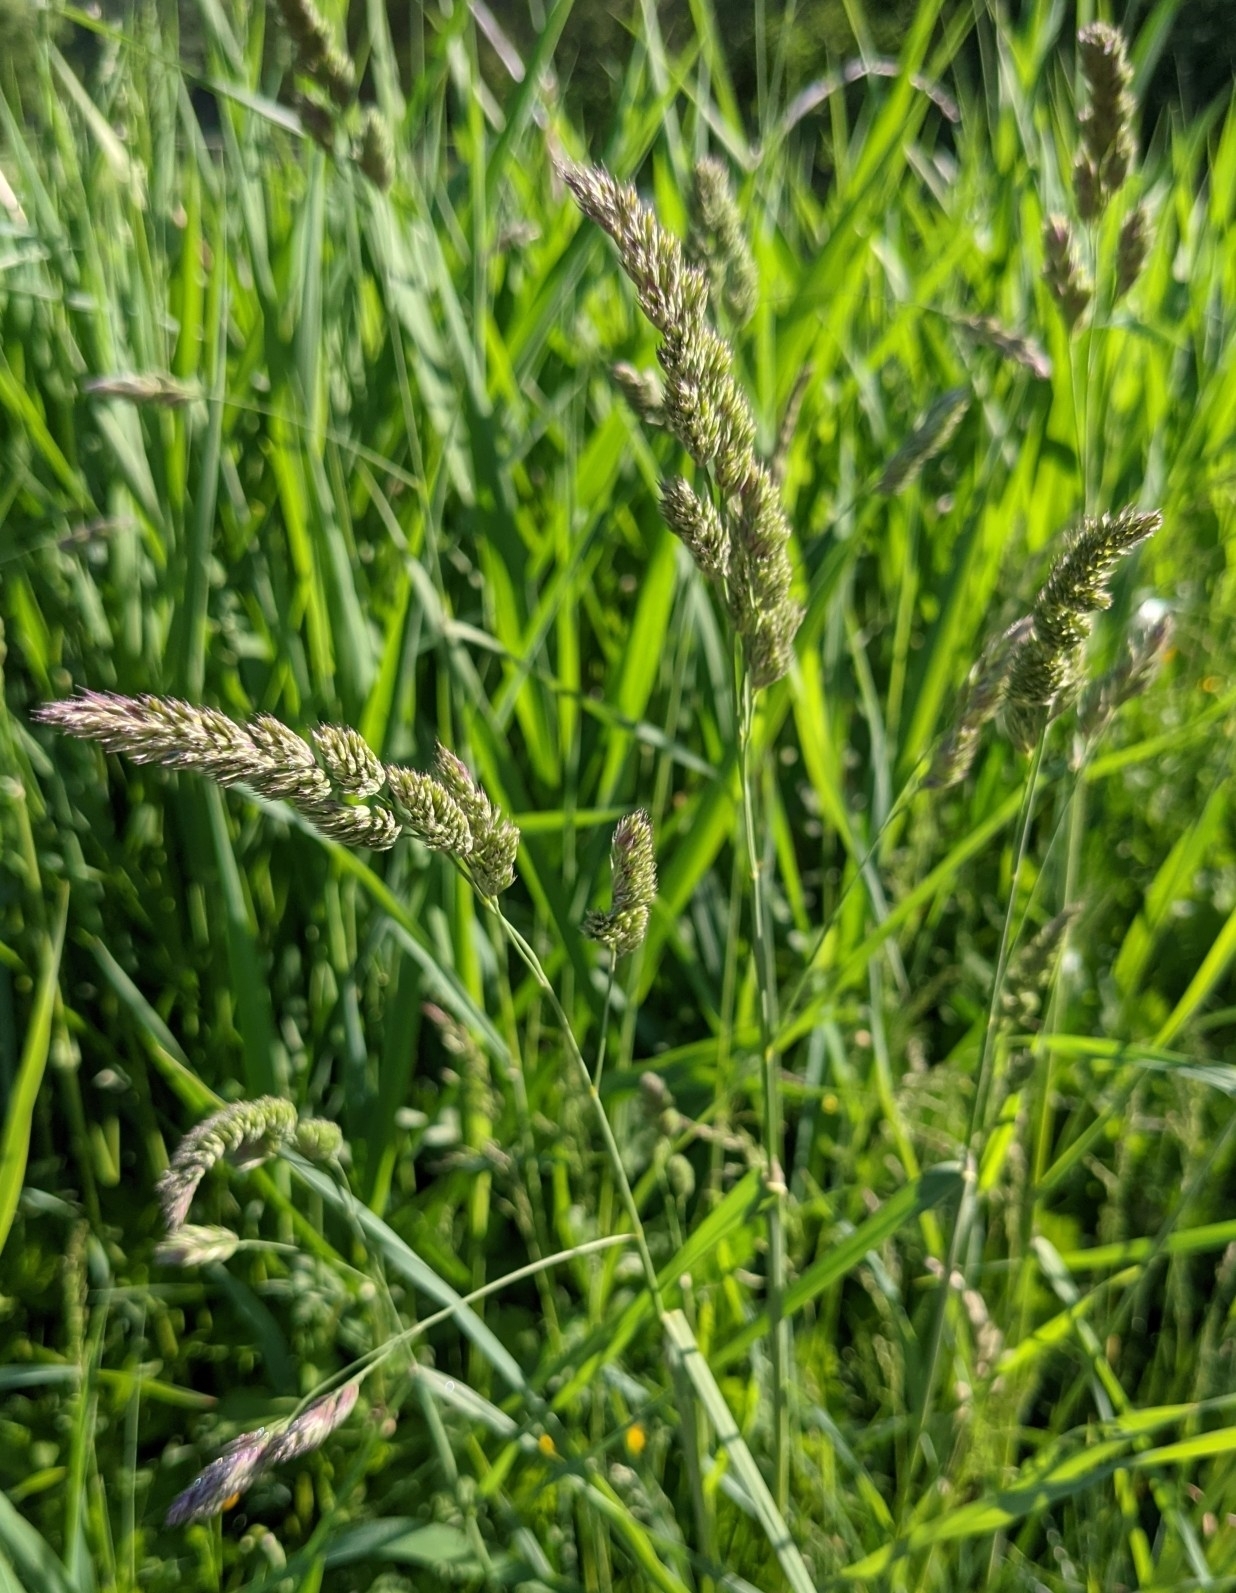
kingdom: Plantae
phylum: Tracheophyta
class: Liliopsida
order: Poales
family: Poaceae
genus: Dactylis
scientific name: Dactylis glomerata
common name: Orchardgrass
